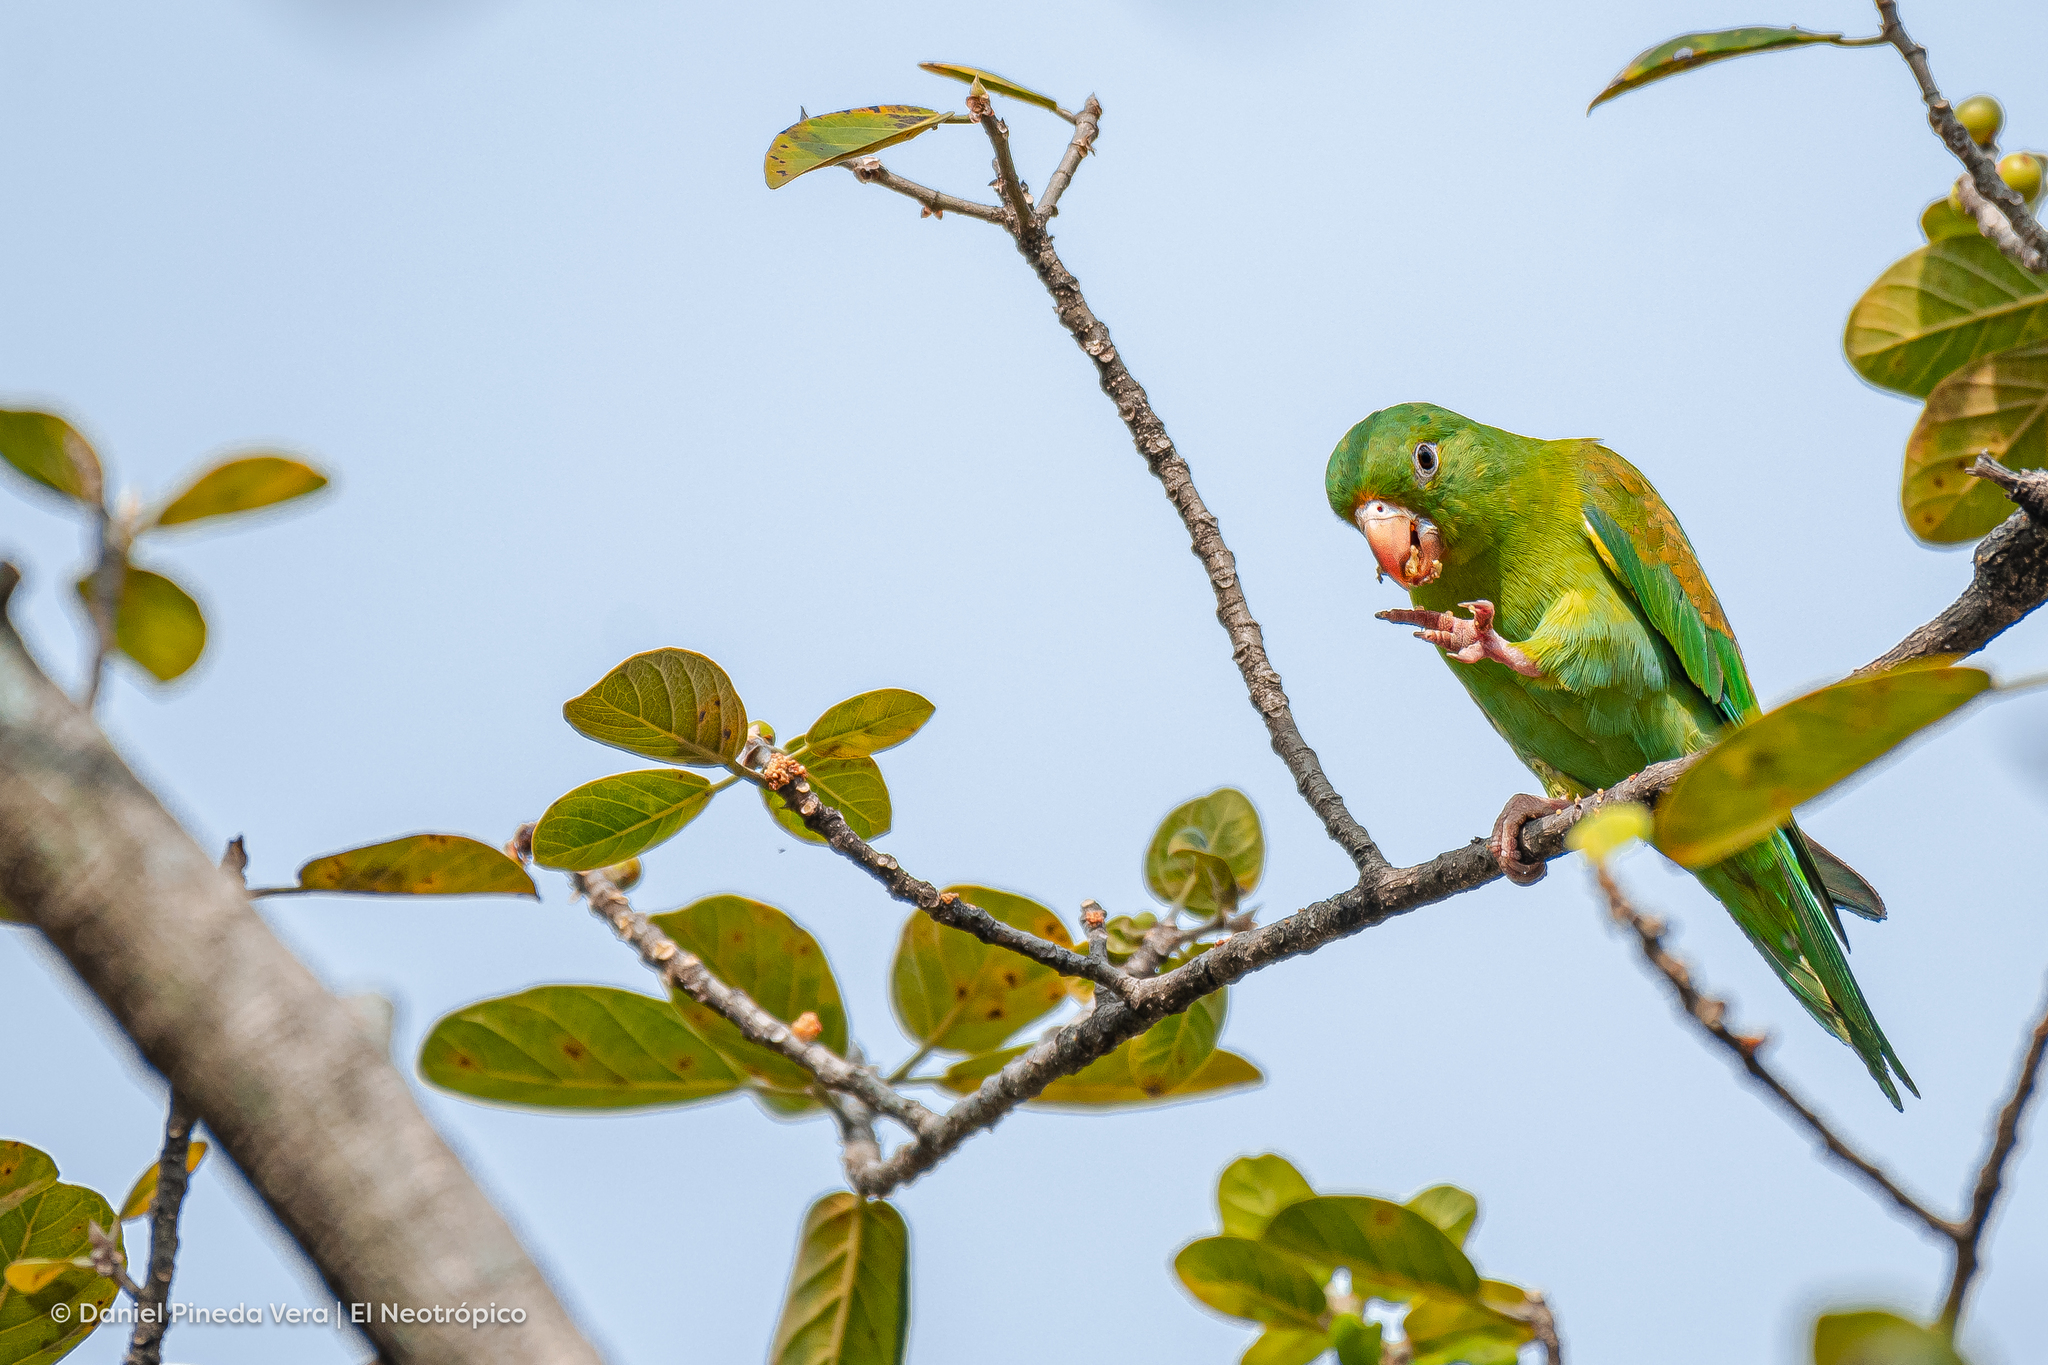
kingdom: Animalia
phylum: Chordata
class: Aves
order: Psittaciformes
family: Psittacidae
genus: Brotogeris
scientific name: Brotogeris jugularis
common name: Orange-chinned parakeet
